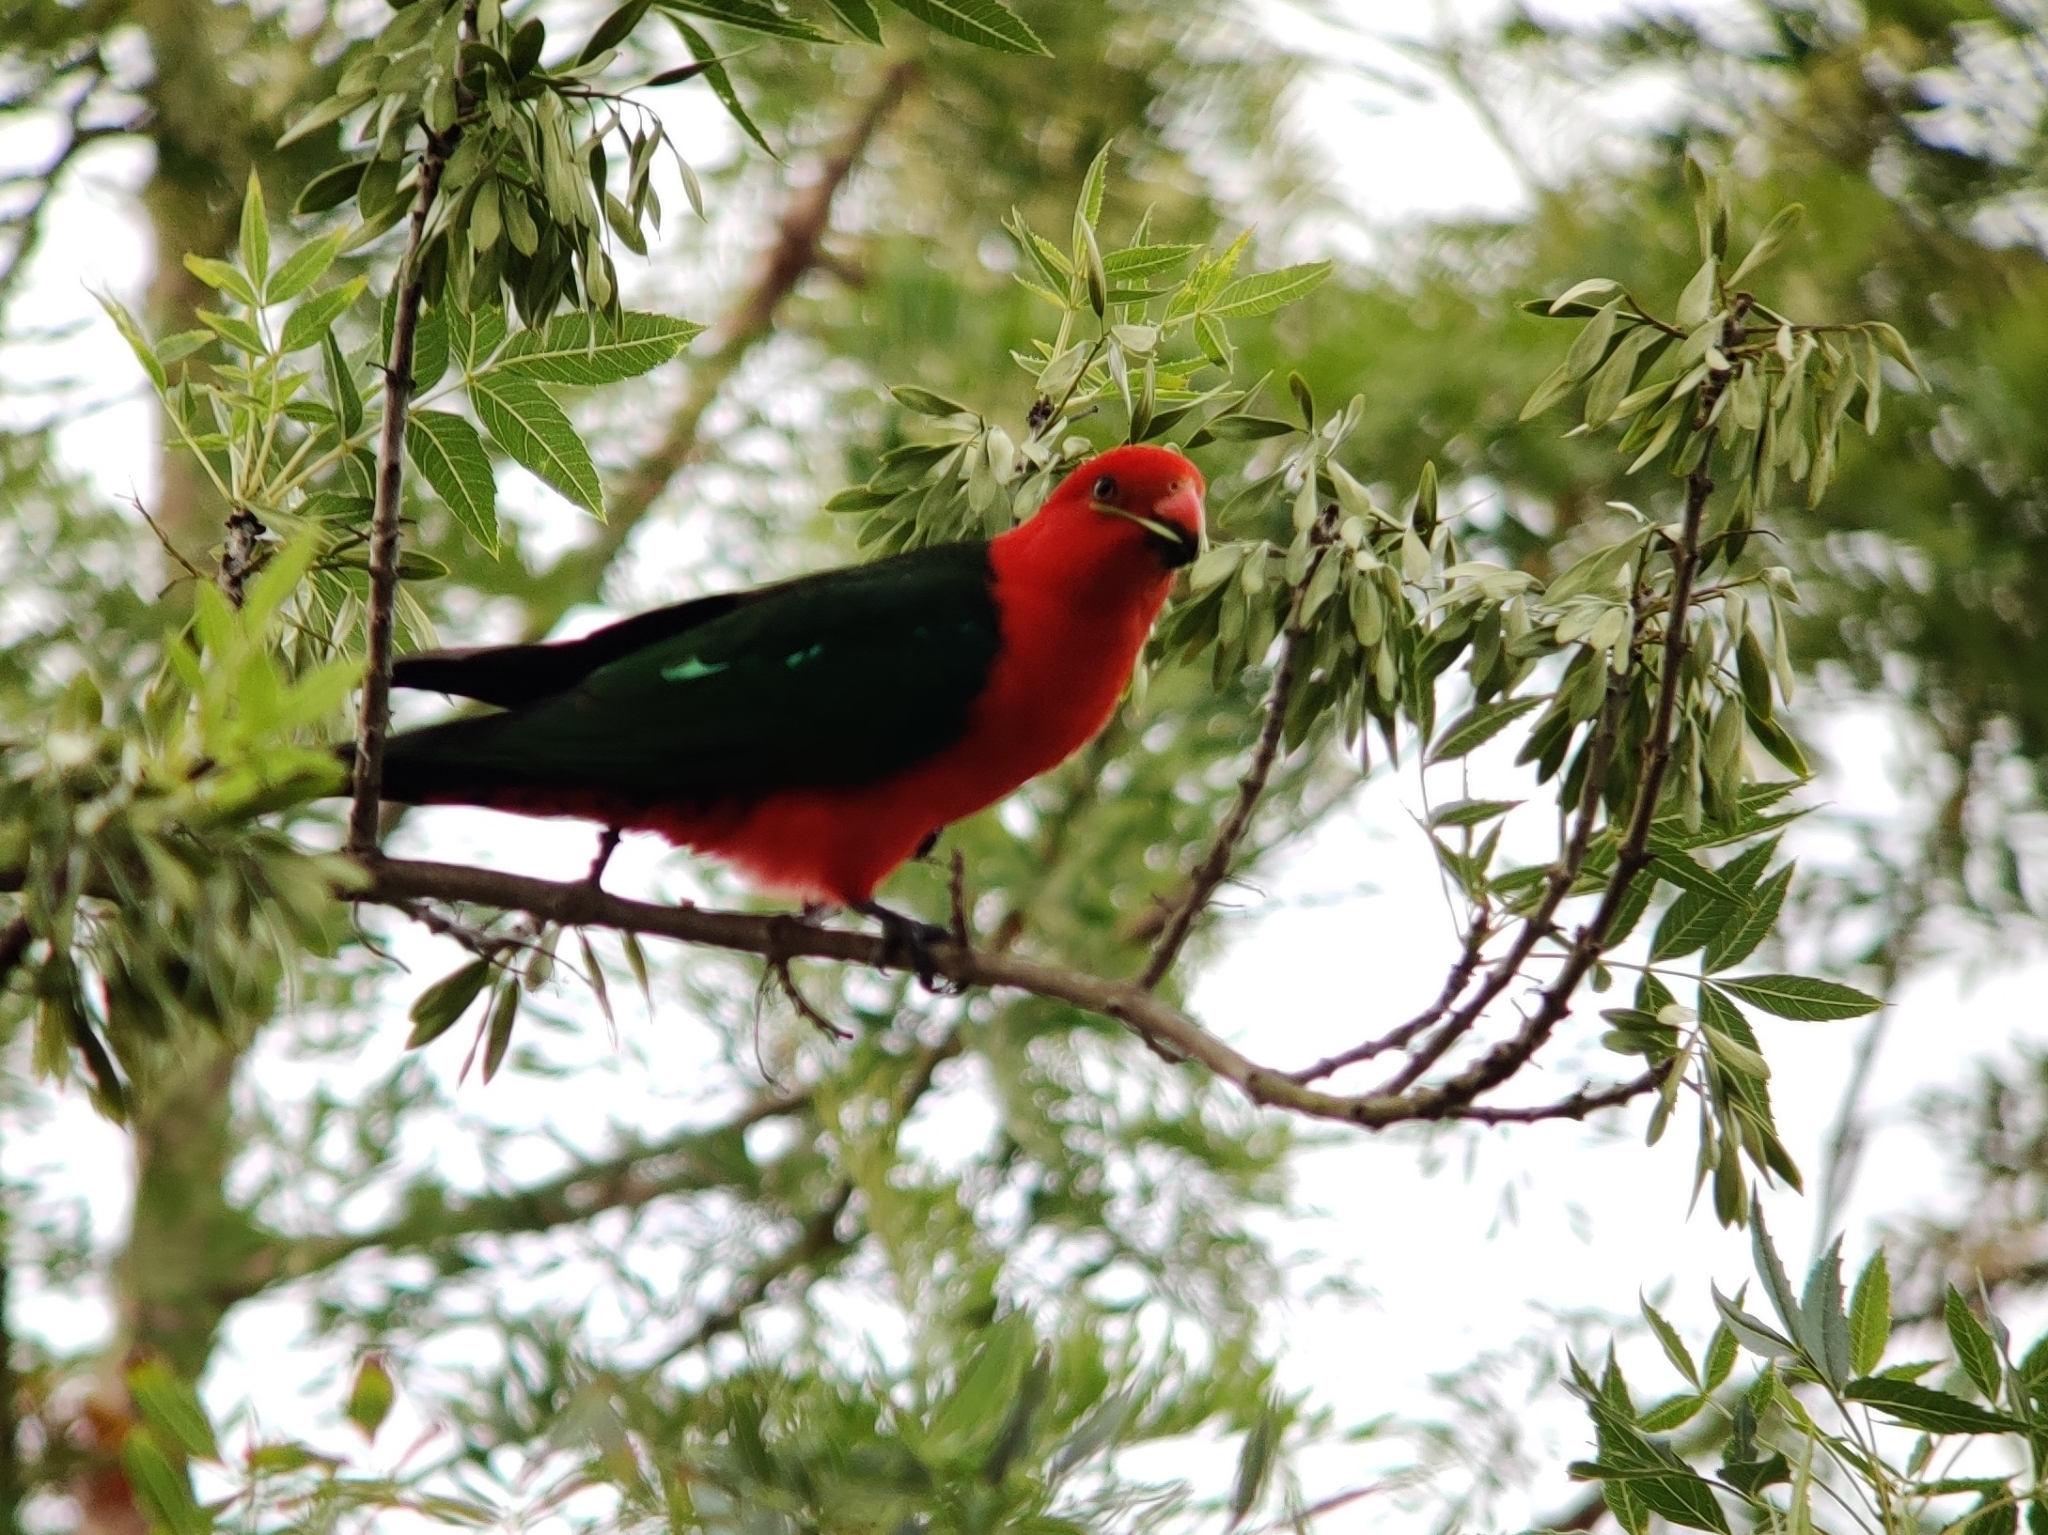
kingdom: Animalia
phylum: Chordata
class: Aves
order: Psittaciformes
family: Psittacidae
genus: Alisterus
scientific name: Alisterus scapularis
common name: Australian king parrot
